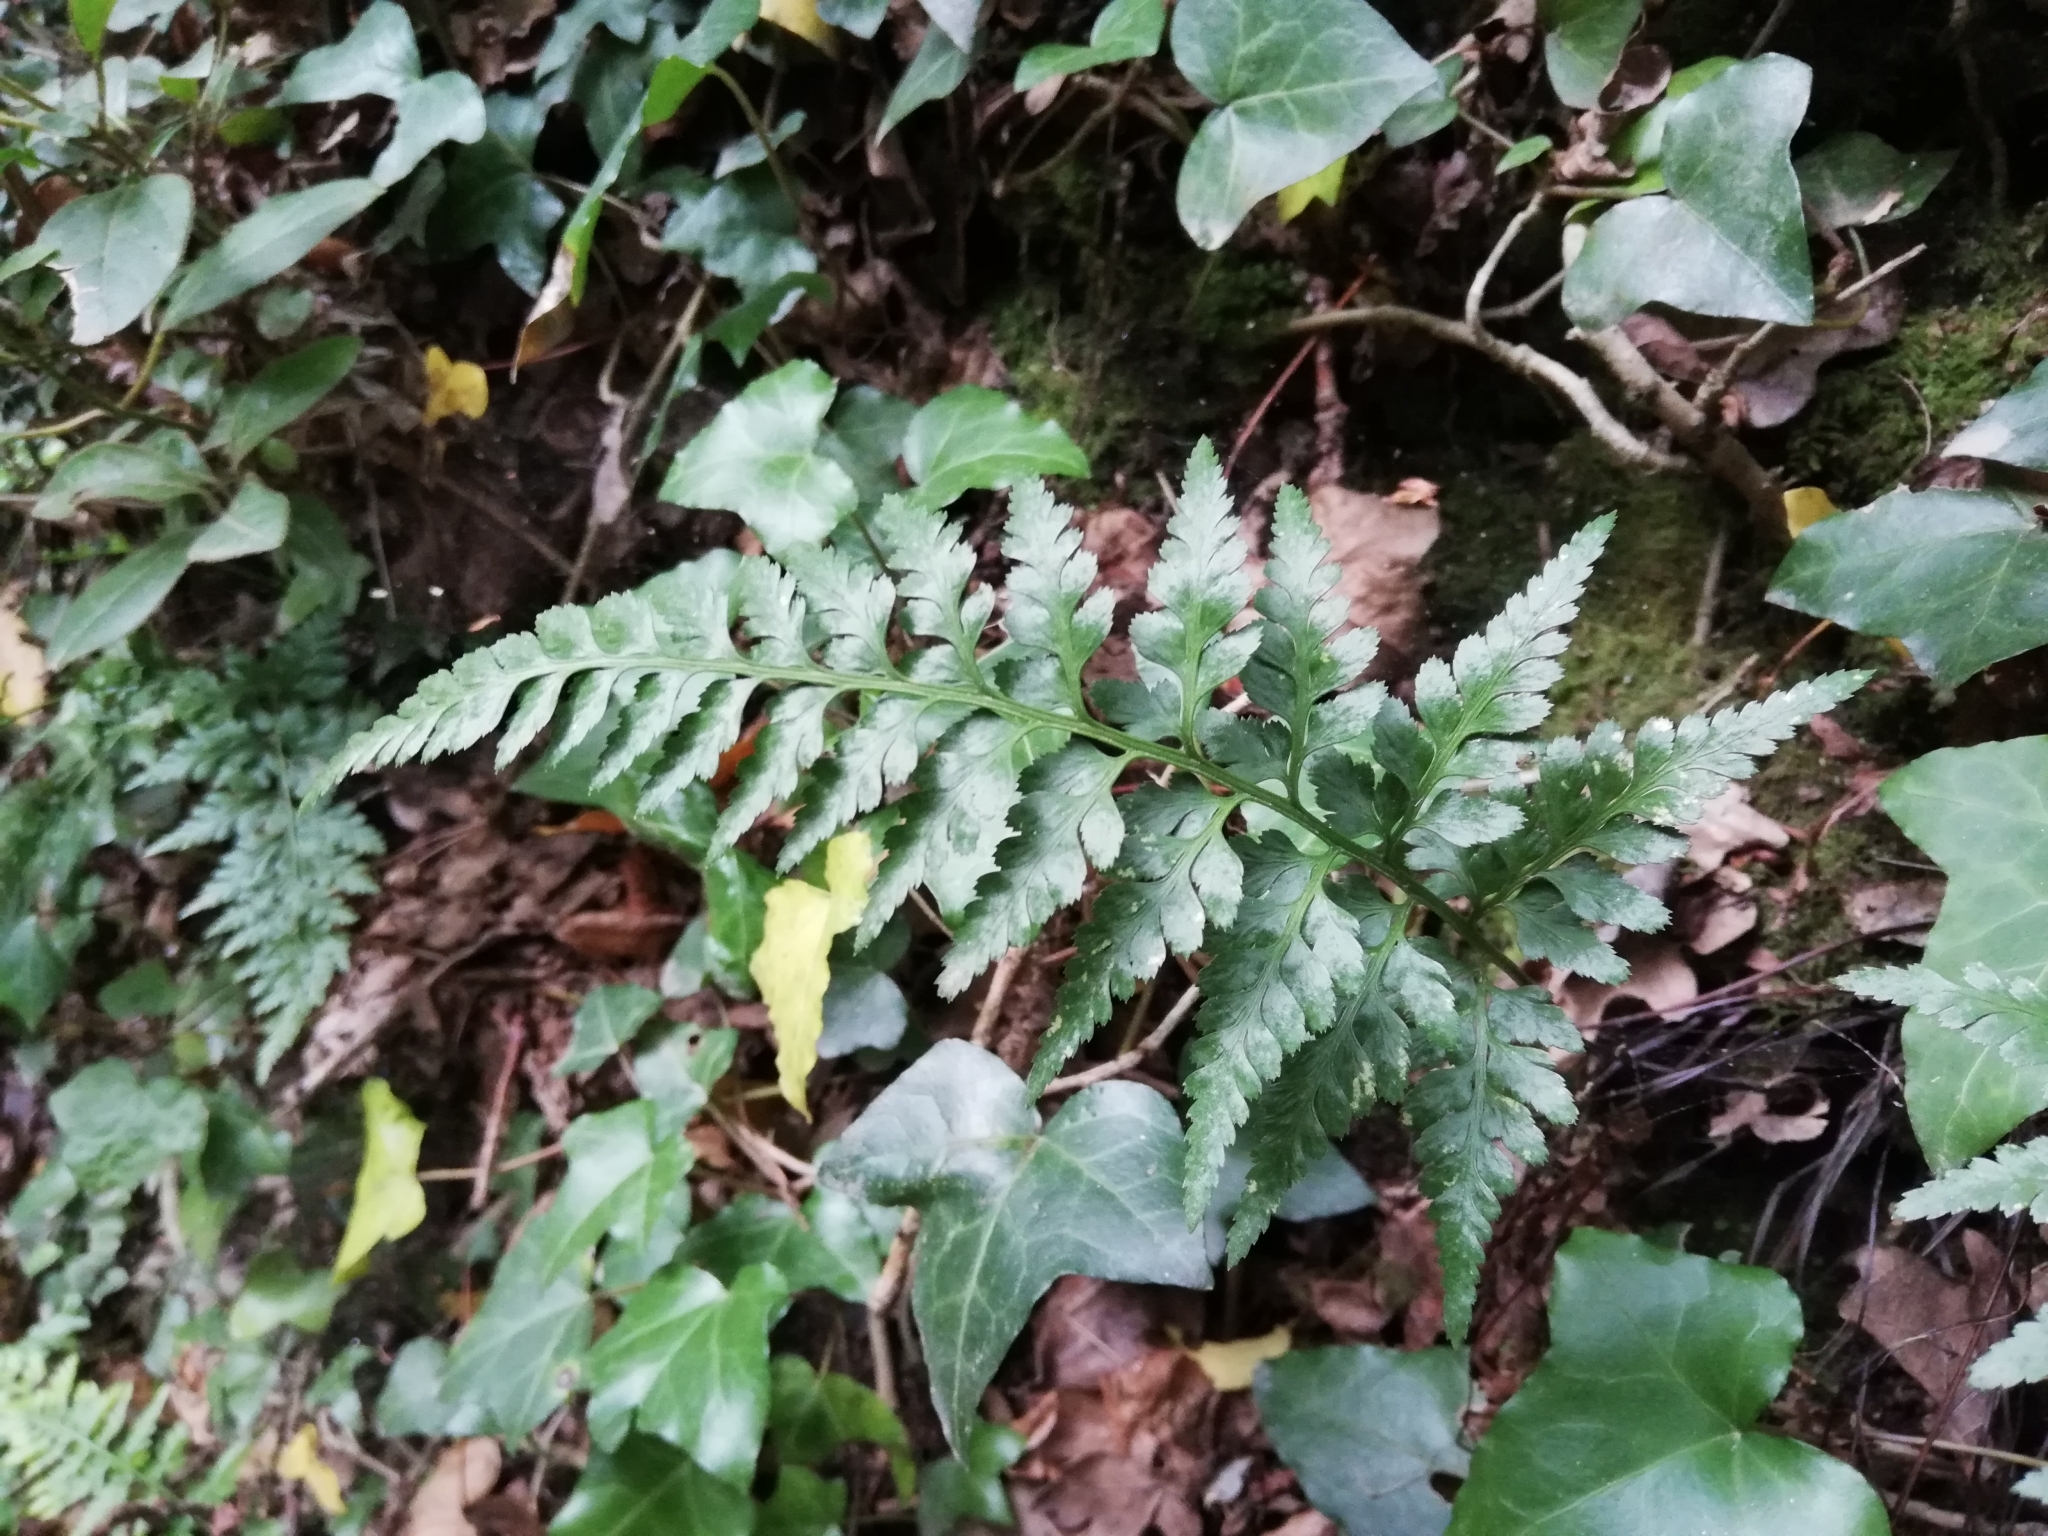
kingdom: Plantae
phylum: Tracheophyta
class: Polypodiopsida
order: Polypodiales
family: Aspleniaceae
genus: Asplenium
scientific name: Asplenium adiantum-nigrum
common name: Black spleenwort
